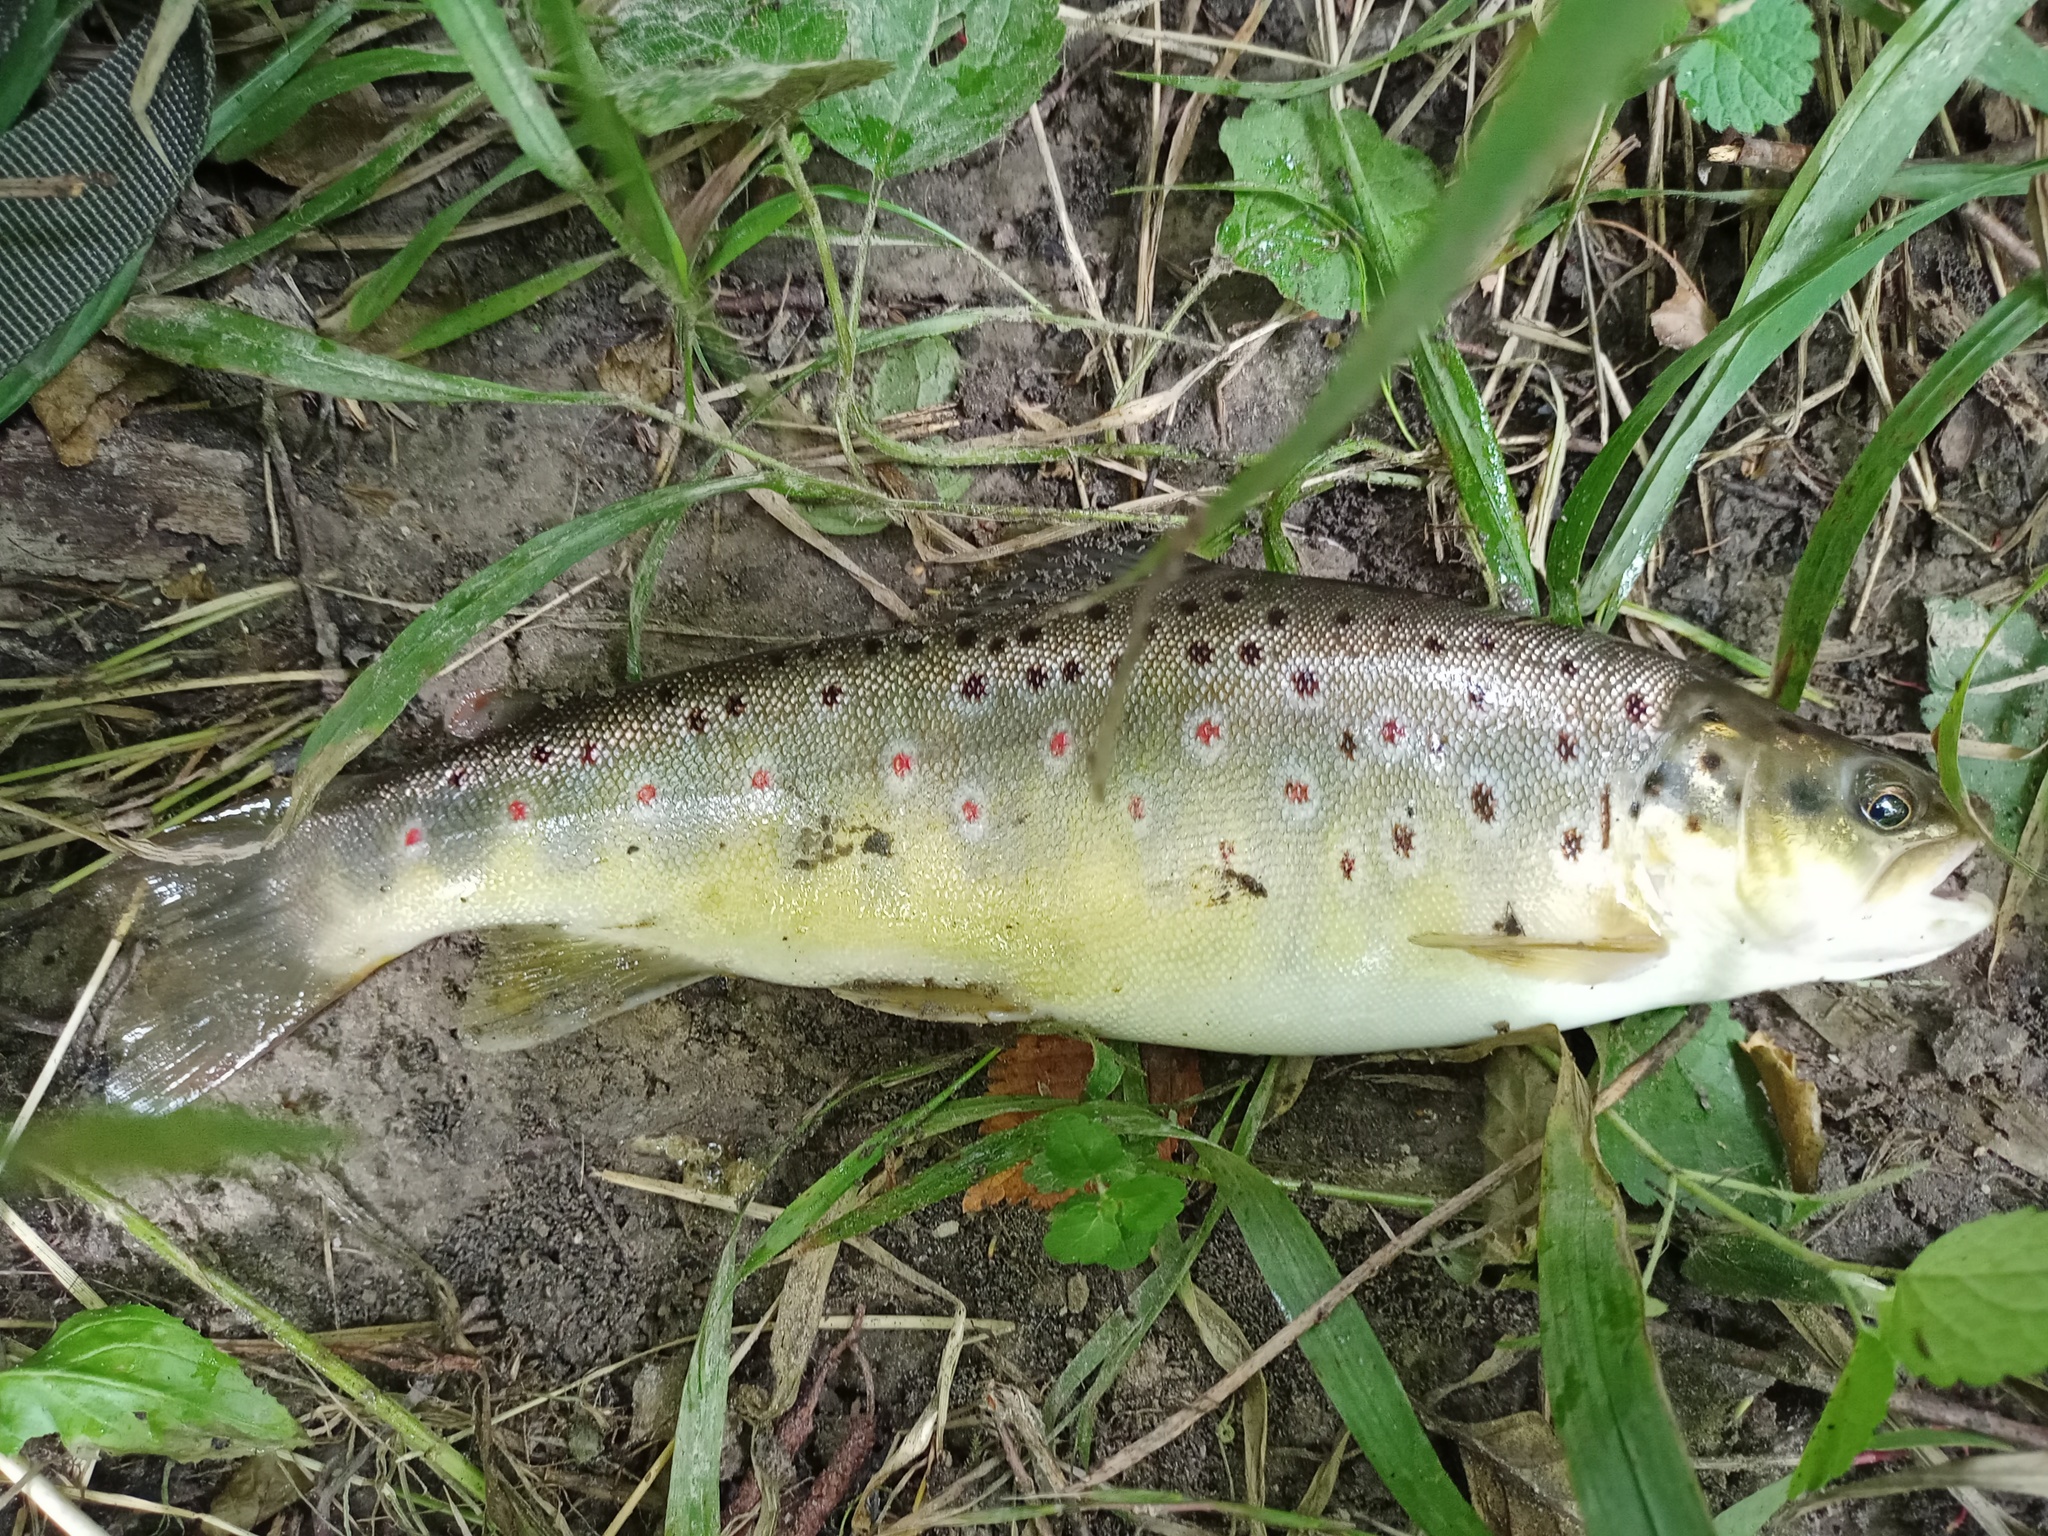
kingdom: Animalia
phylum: Chordata
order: Salmoniformes
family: Salmonidae
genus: Salmo
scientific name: Salmo trutta
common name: Brown trout
